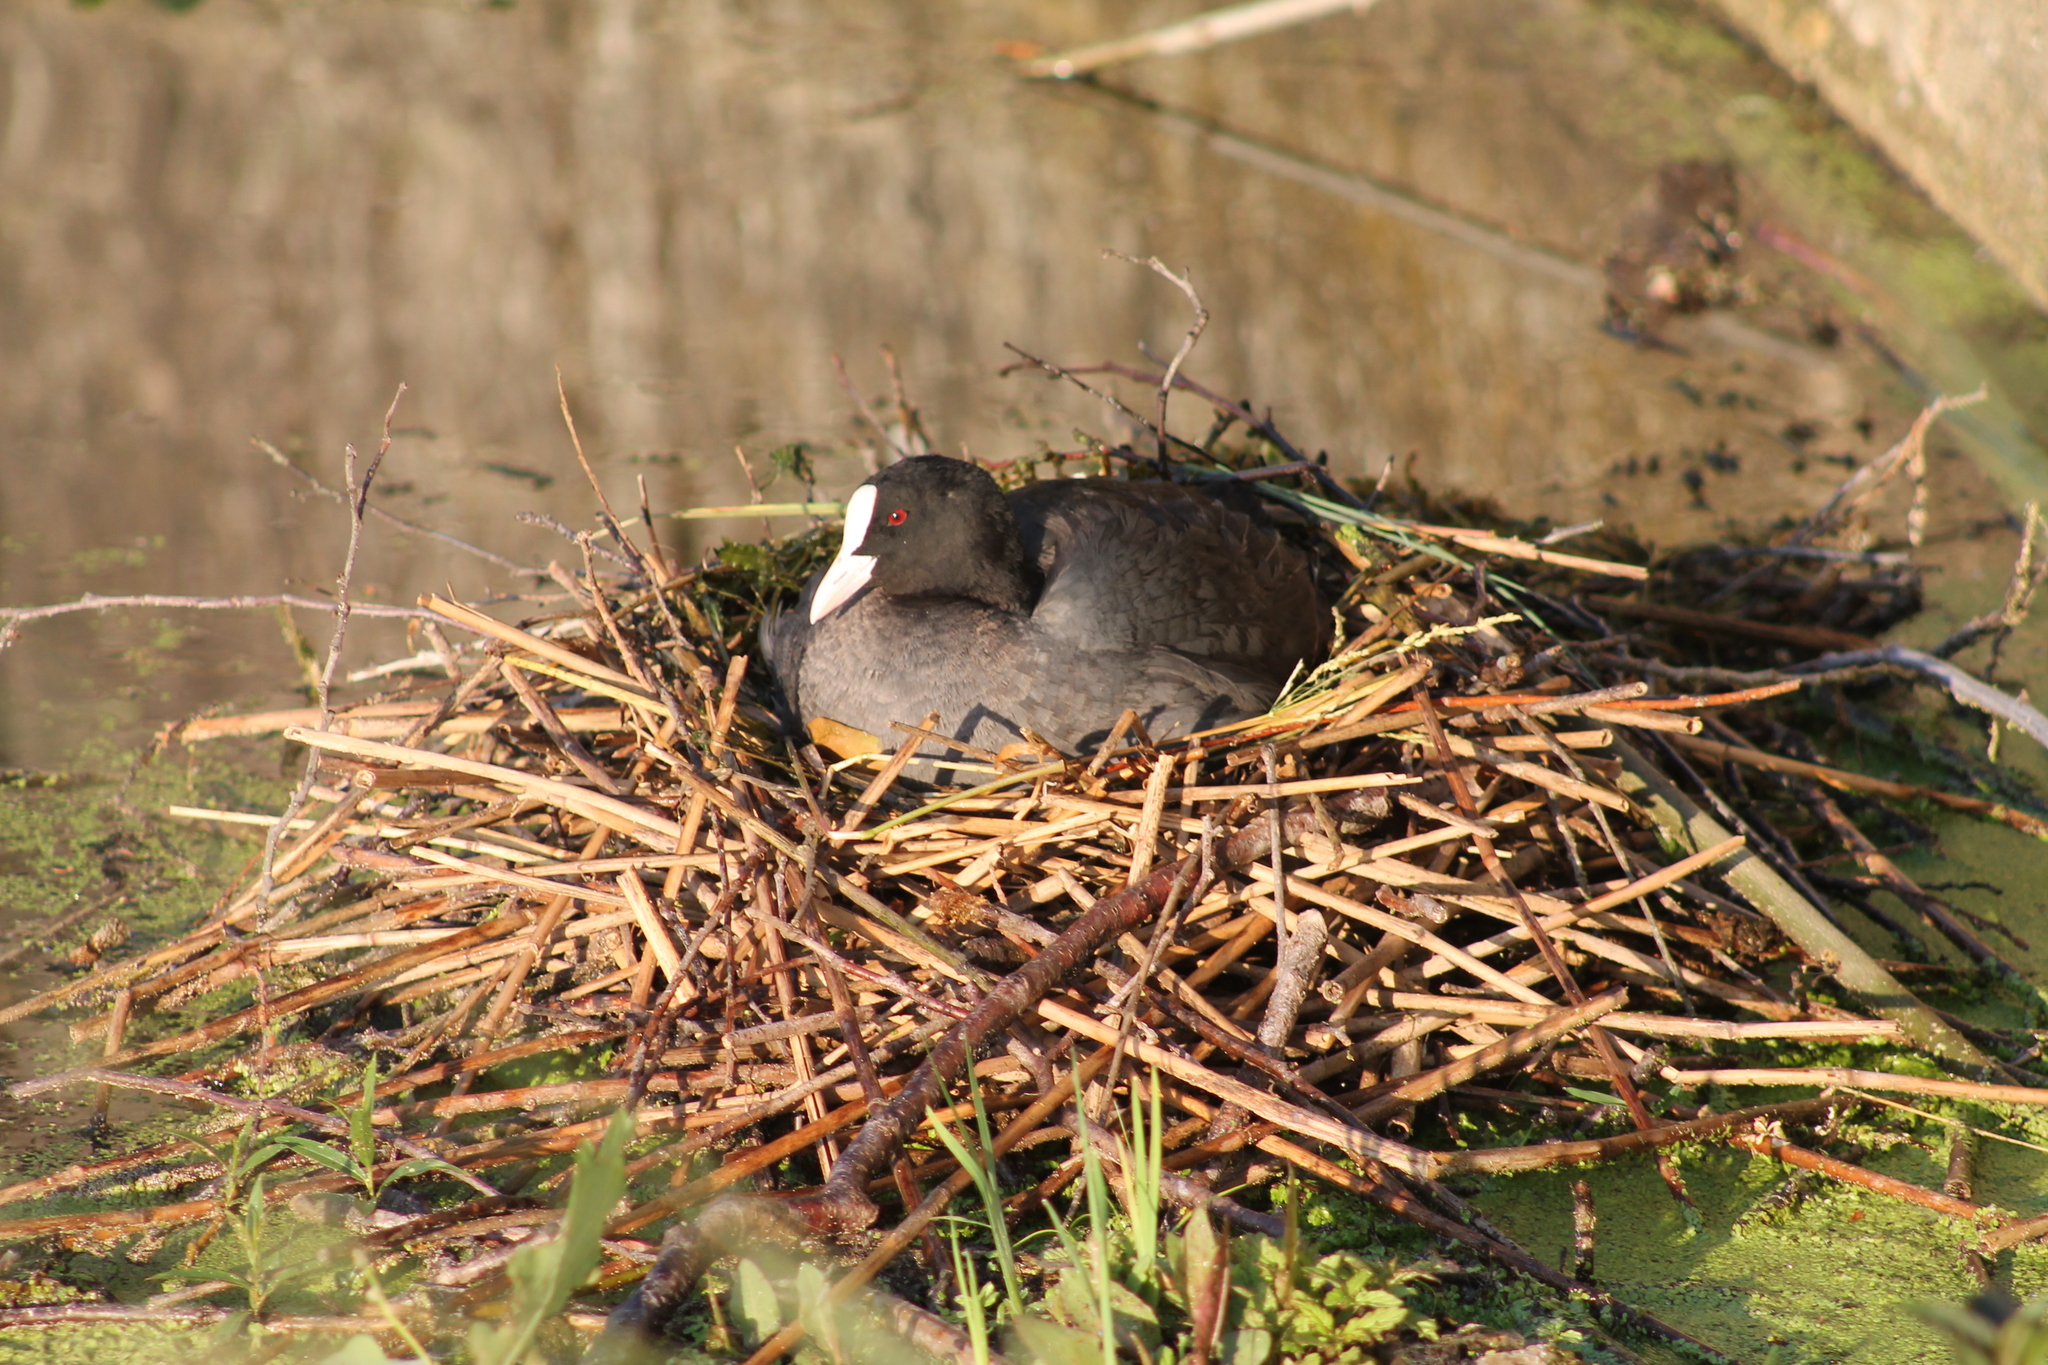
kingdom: Animalia
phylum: Chordata
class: Aves
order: Gruiformes
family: Rallidae
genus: Fulica
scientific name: Fulica atra
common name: Eurasian coot
